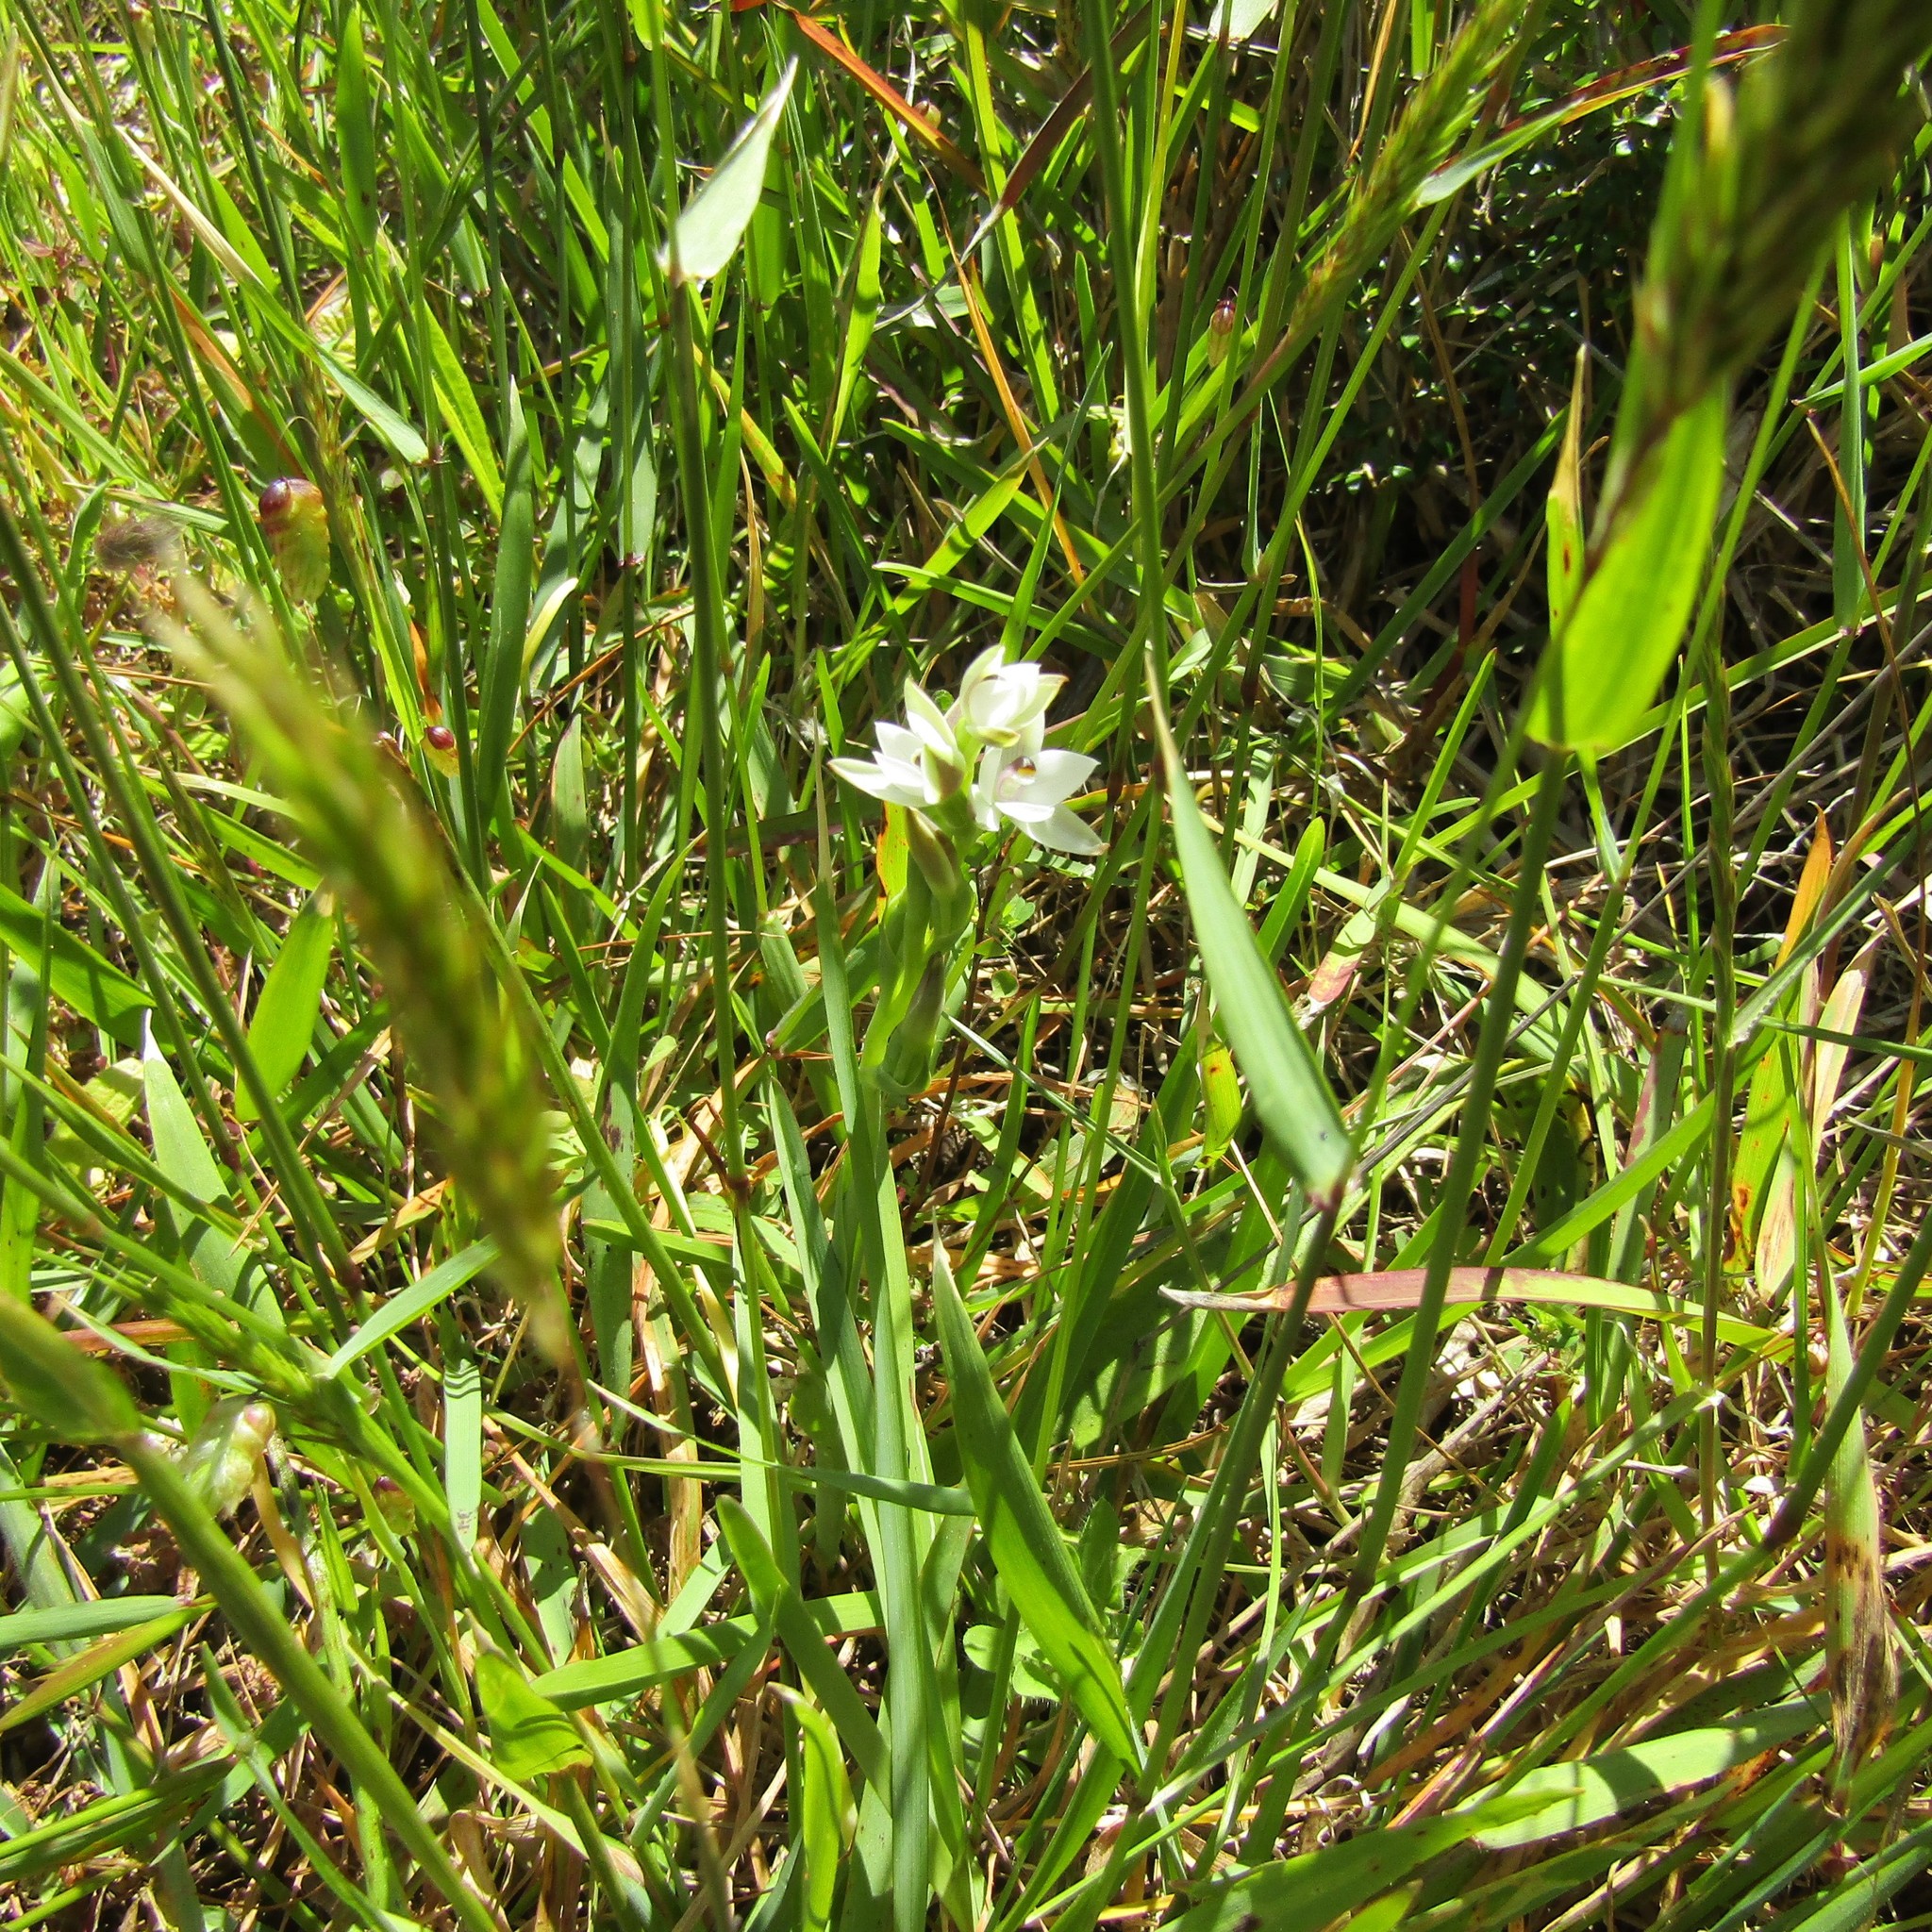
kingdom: Plantae
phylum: Tracheophyta
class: Liliopsida
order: Asparagales
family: Orchidaceae
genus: Thelymitra
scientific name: Thelymitra longifolia
